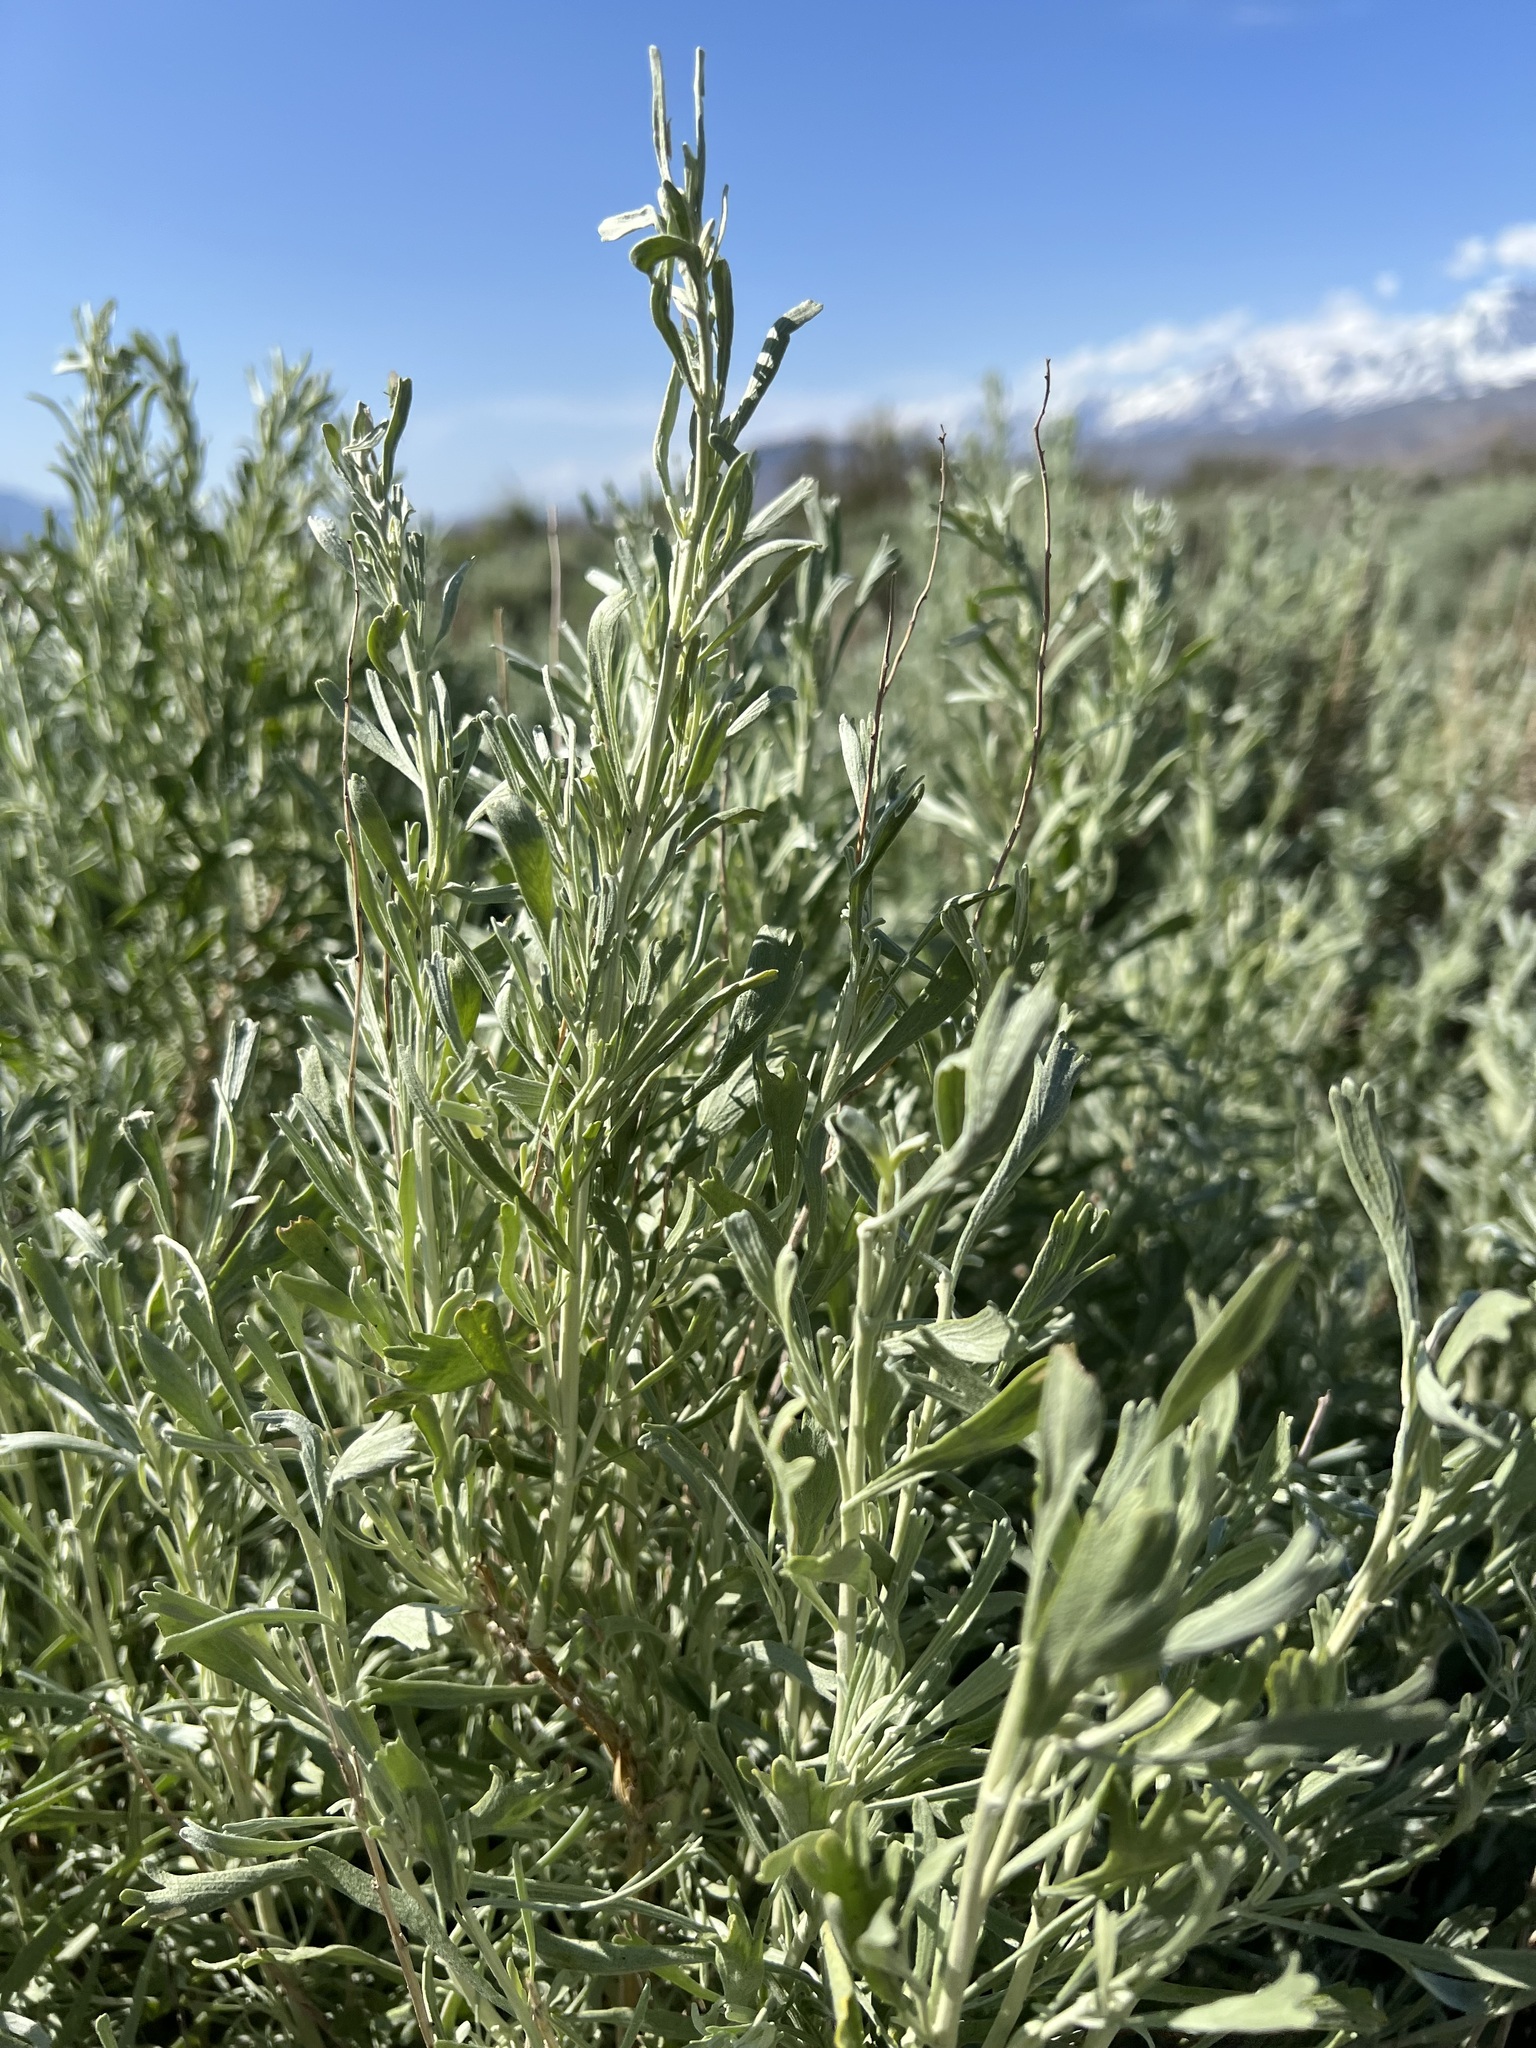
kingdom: Plantae
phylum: Tracheophyta
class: Magnoliopsida
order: Asterales
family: Asteraceae
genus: Artemisia
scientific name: Artemisia tridentata
